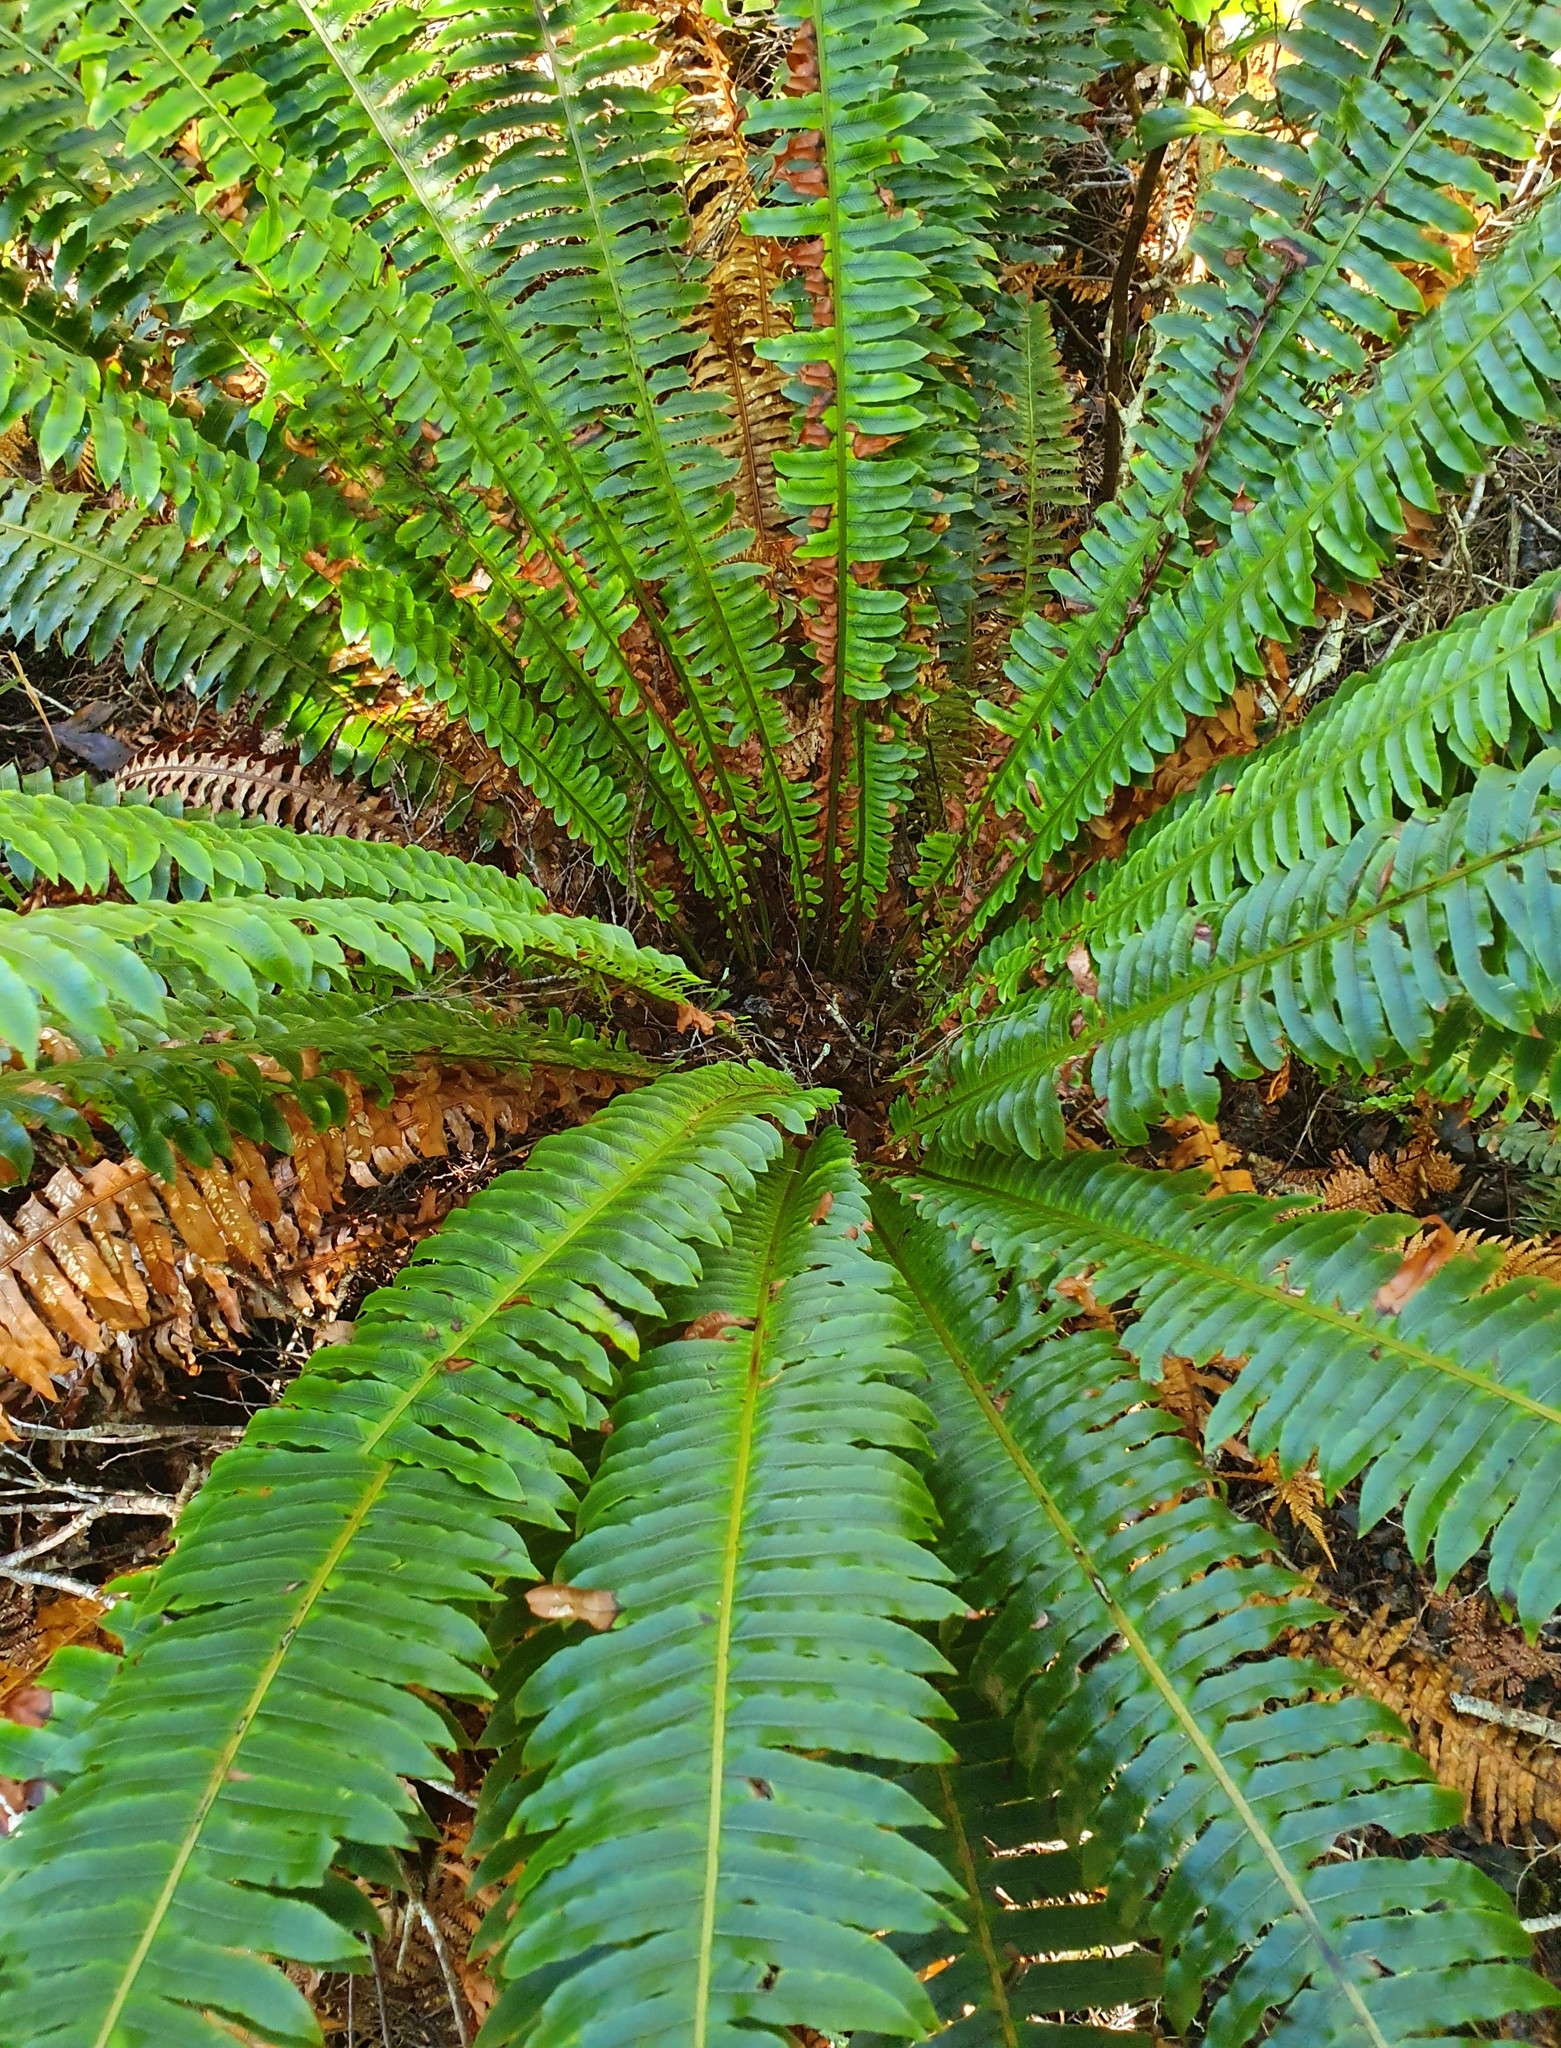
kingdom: Plantae
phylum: Tracheophyta
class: Polypodiopsida
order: Polypodiales
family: Blechnaceae
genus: Lomaria
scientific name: Lomaria discolor
